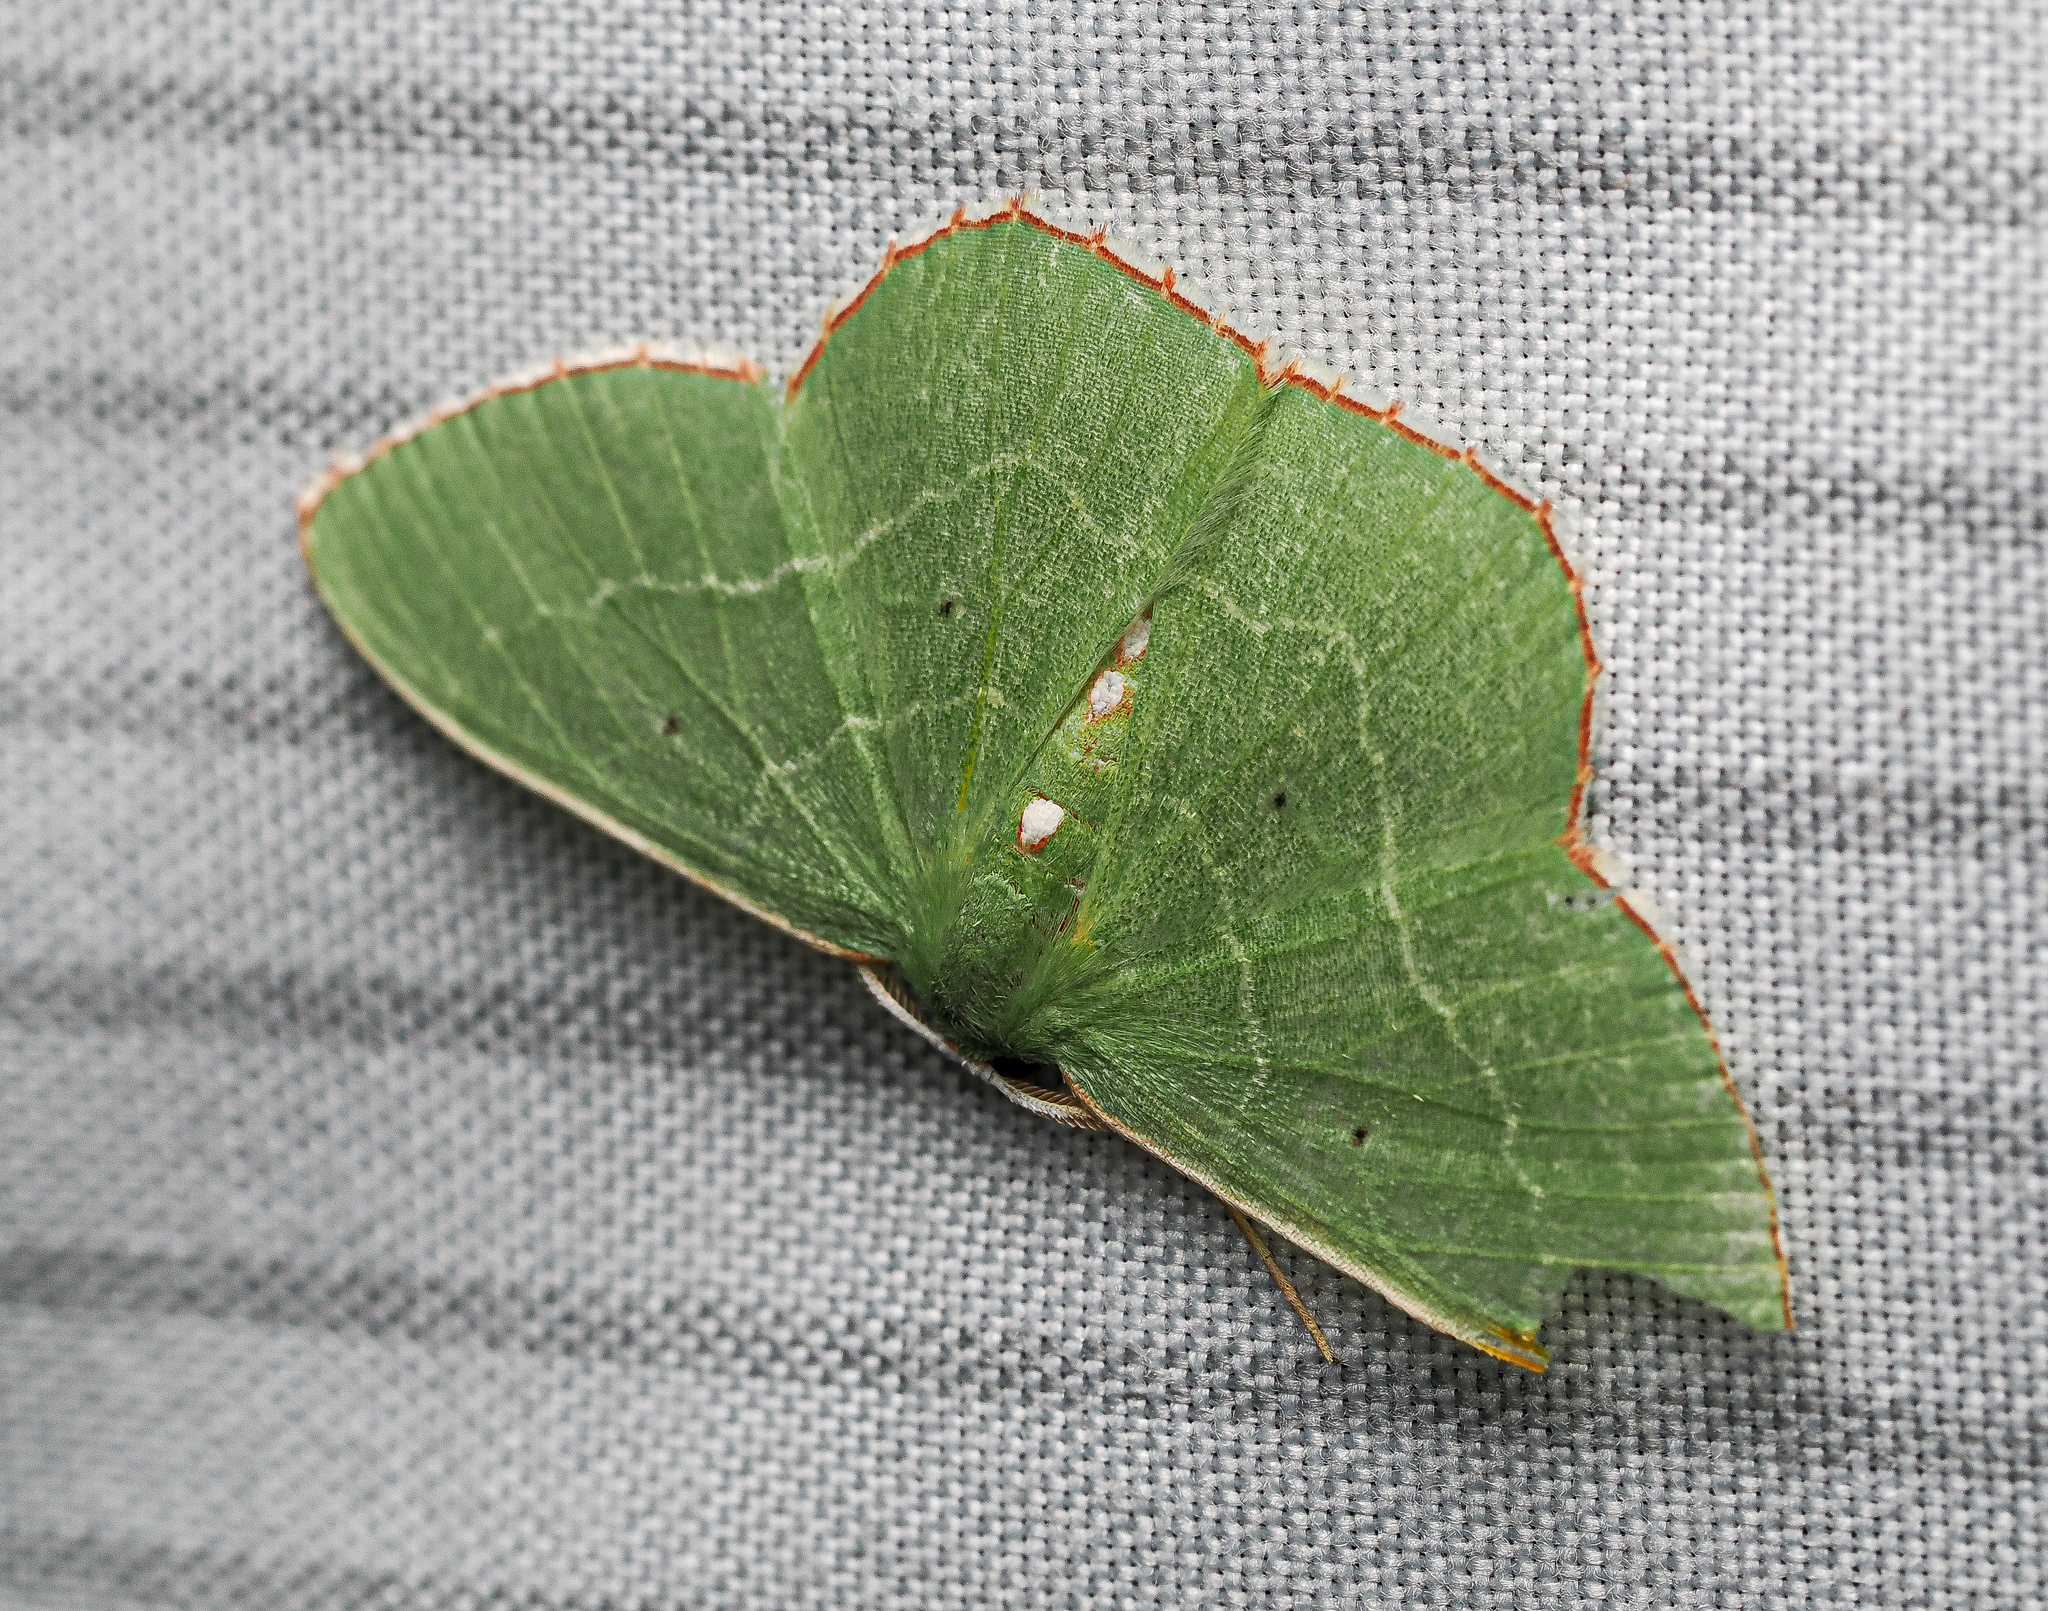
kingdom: Animalia
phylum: Arthropoda
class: Insecta
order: Lepidoptera
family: Geometridae
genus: Nemoria
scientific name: Nemoria lixaria
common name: Red-bordered emerald
